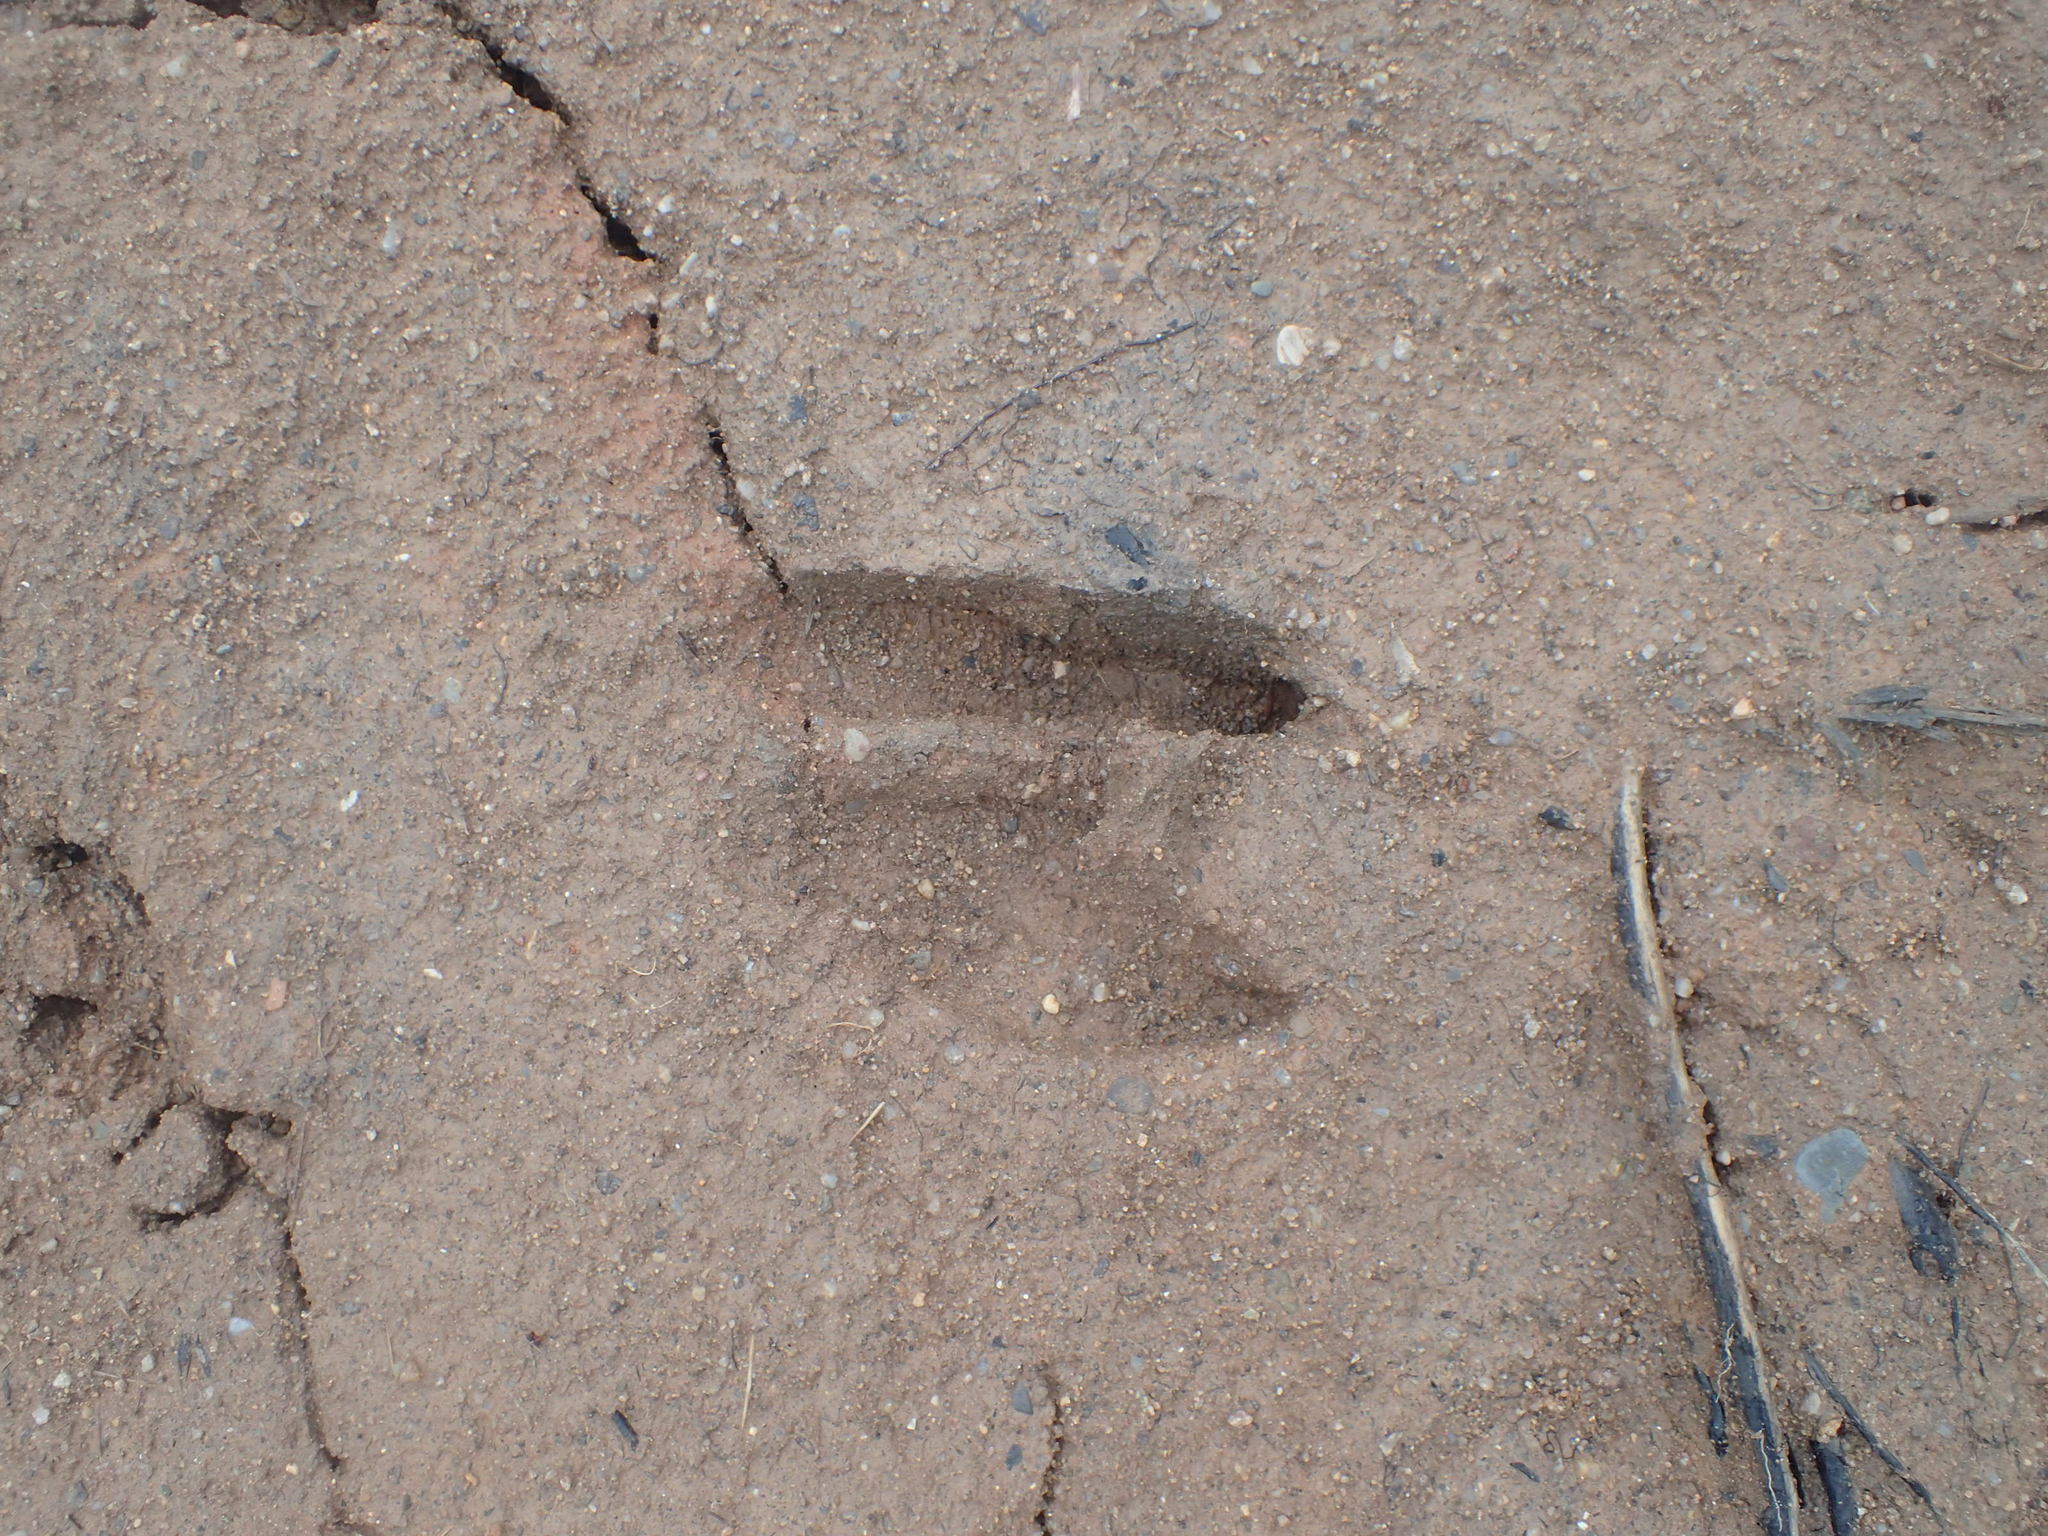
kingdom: Animalia
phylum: Chordata
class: Mammalia
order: Artiodactyla
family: Cervidae
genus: Odocoileus
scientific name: Odocoileus virginianus
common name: White-tailed deer
